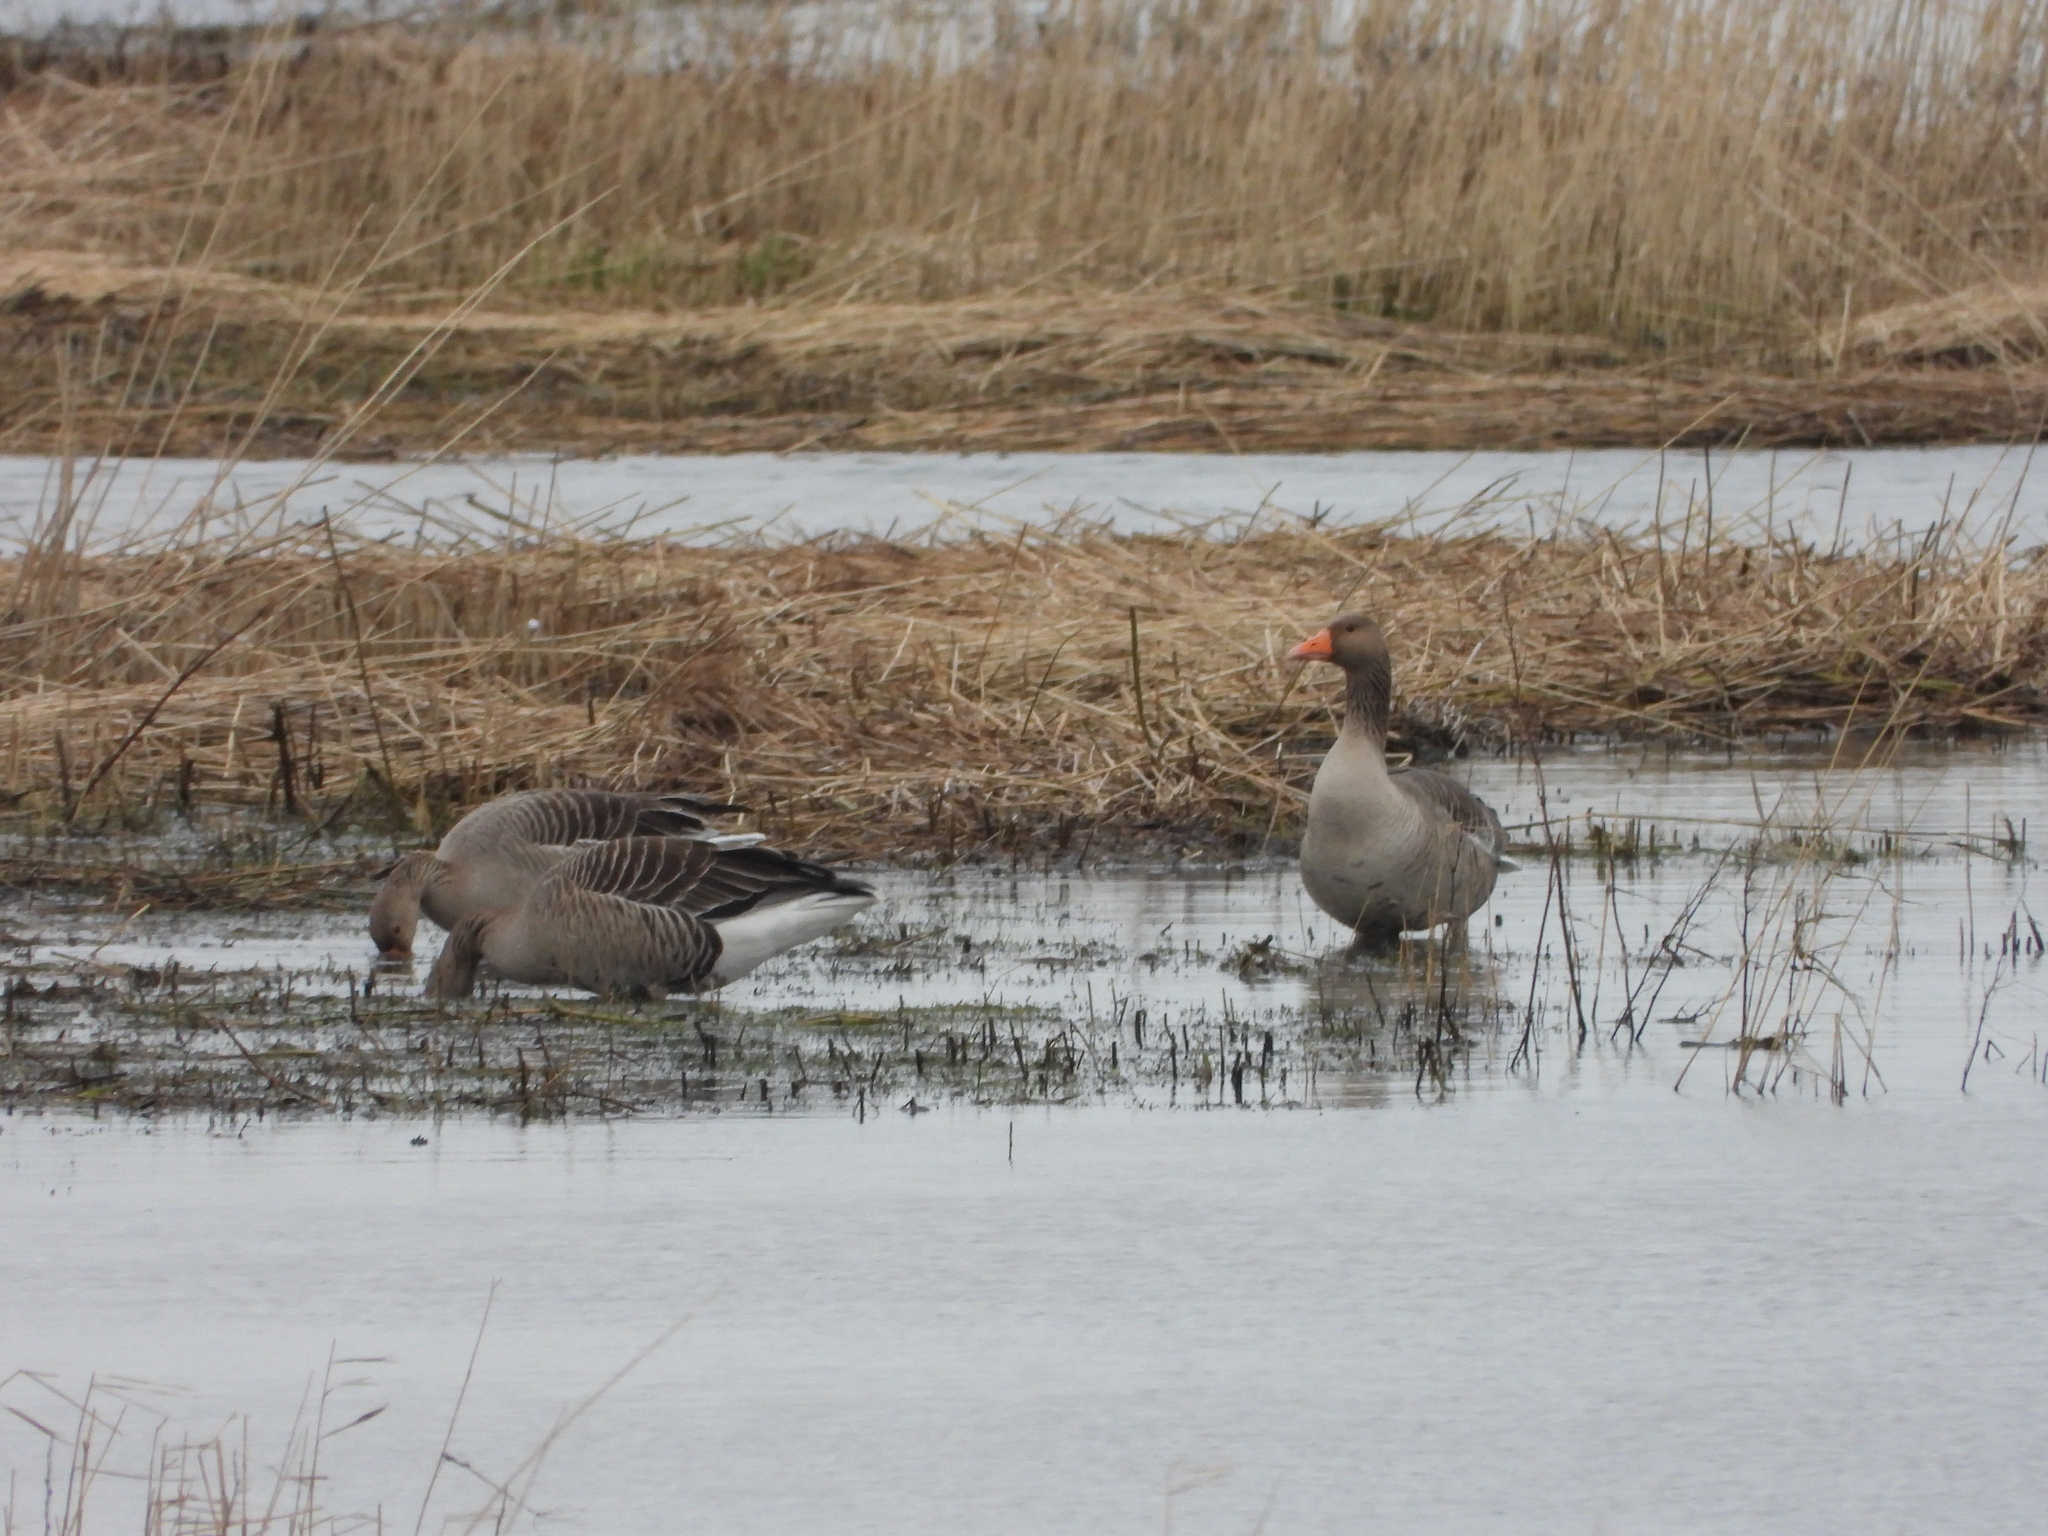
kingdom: Animalia
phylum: Chordata
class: Aves
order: Anseriformes
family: Anatidae
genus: Anser
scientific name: Anser anser
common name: Greylag goose
